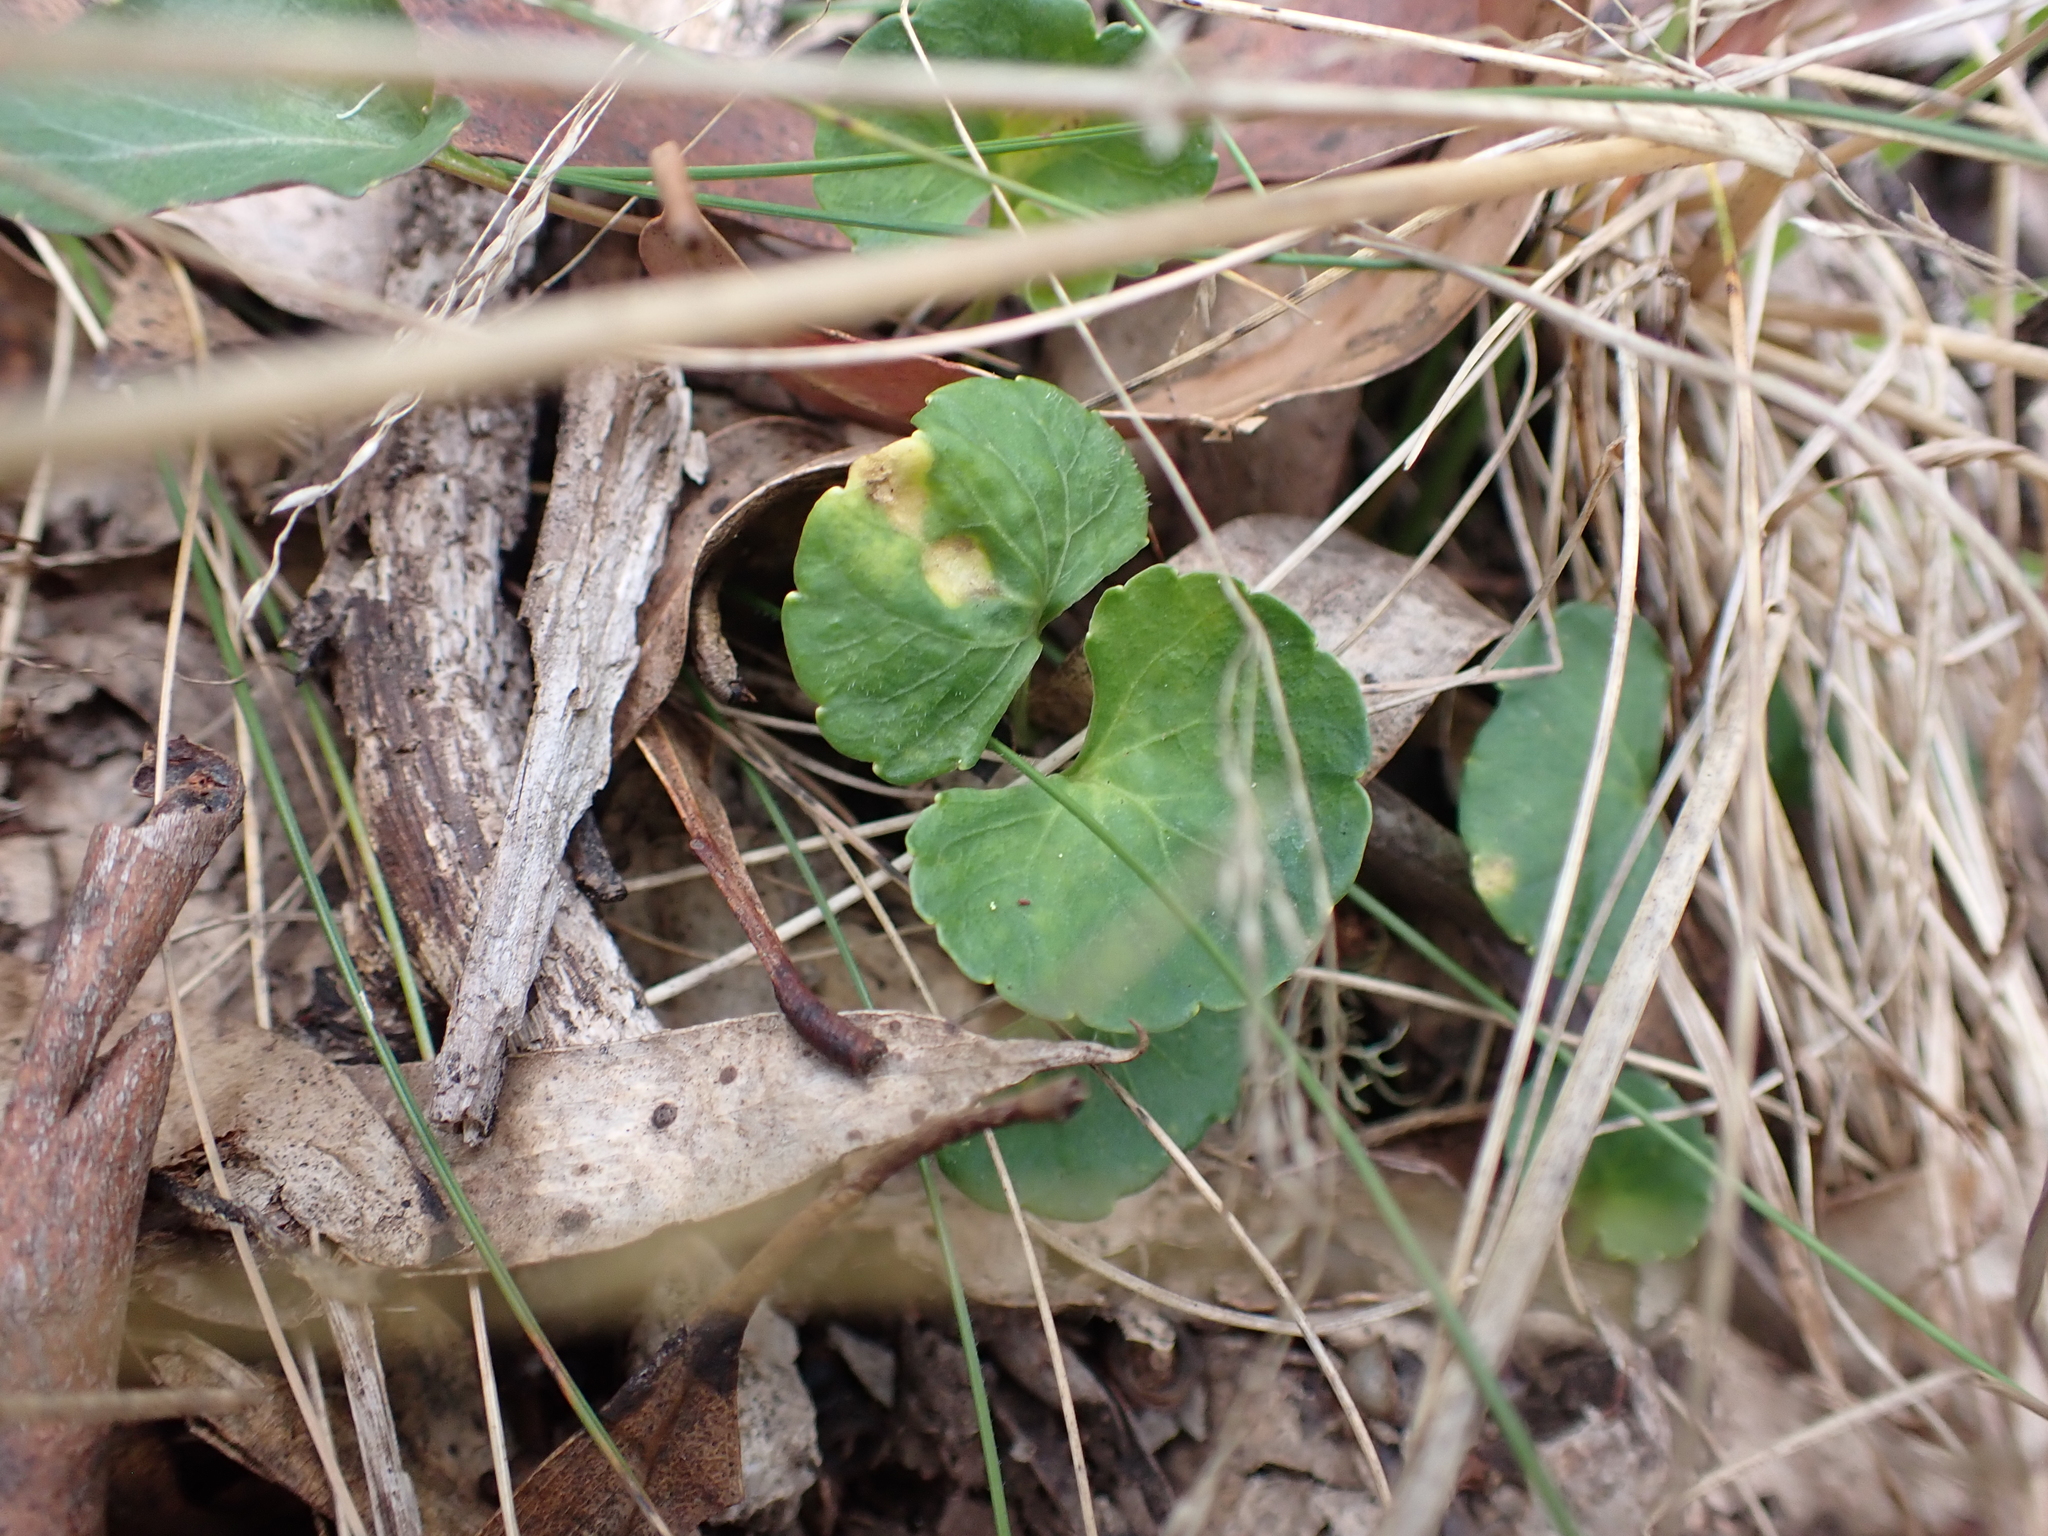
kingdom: Plantae
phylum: Tracheophyta
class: Magnoliopsida
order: Malpighiales
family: Violaceae
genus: Viola
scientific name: Viola hederacea
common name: Australian violet
